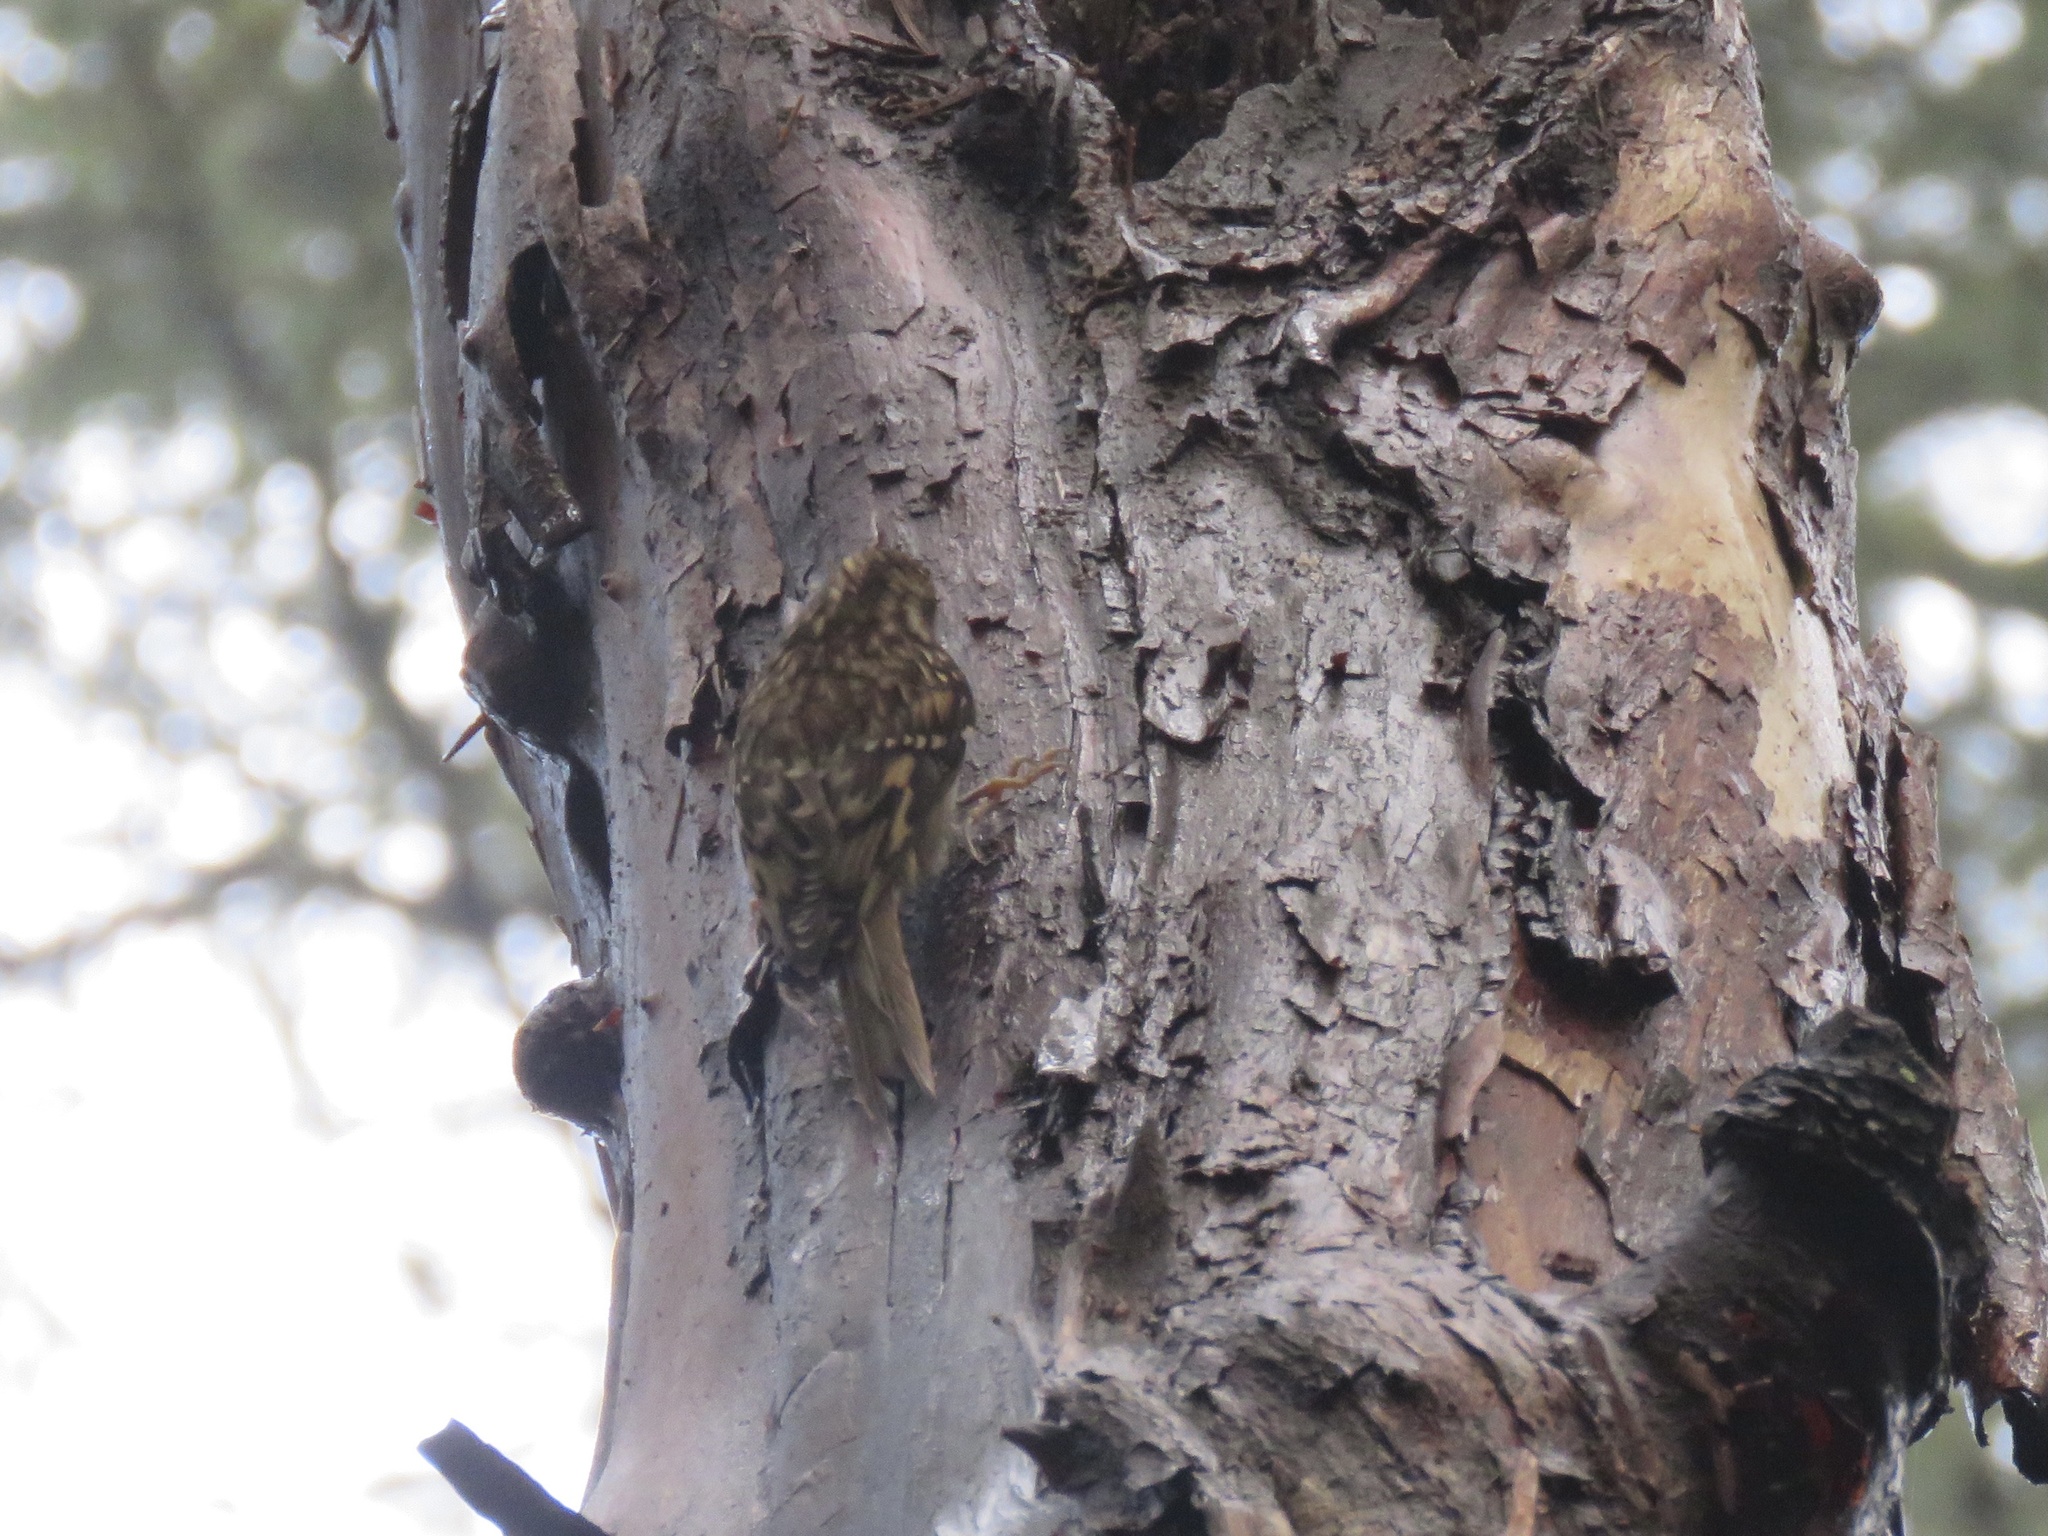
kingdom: Animalia
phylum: Chordata
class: Aves
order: Passeriformes
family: Certhiidae
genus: Certhia
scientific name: Certhia americana
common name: Brown creeper
